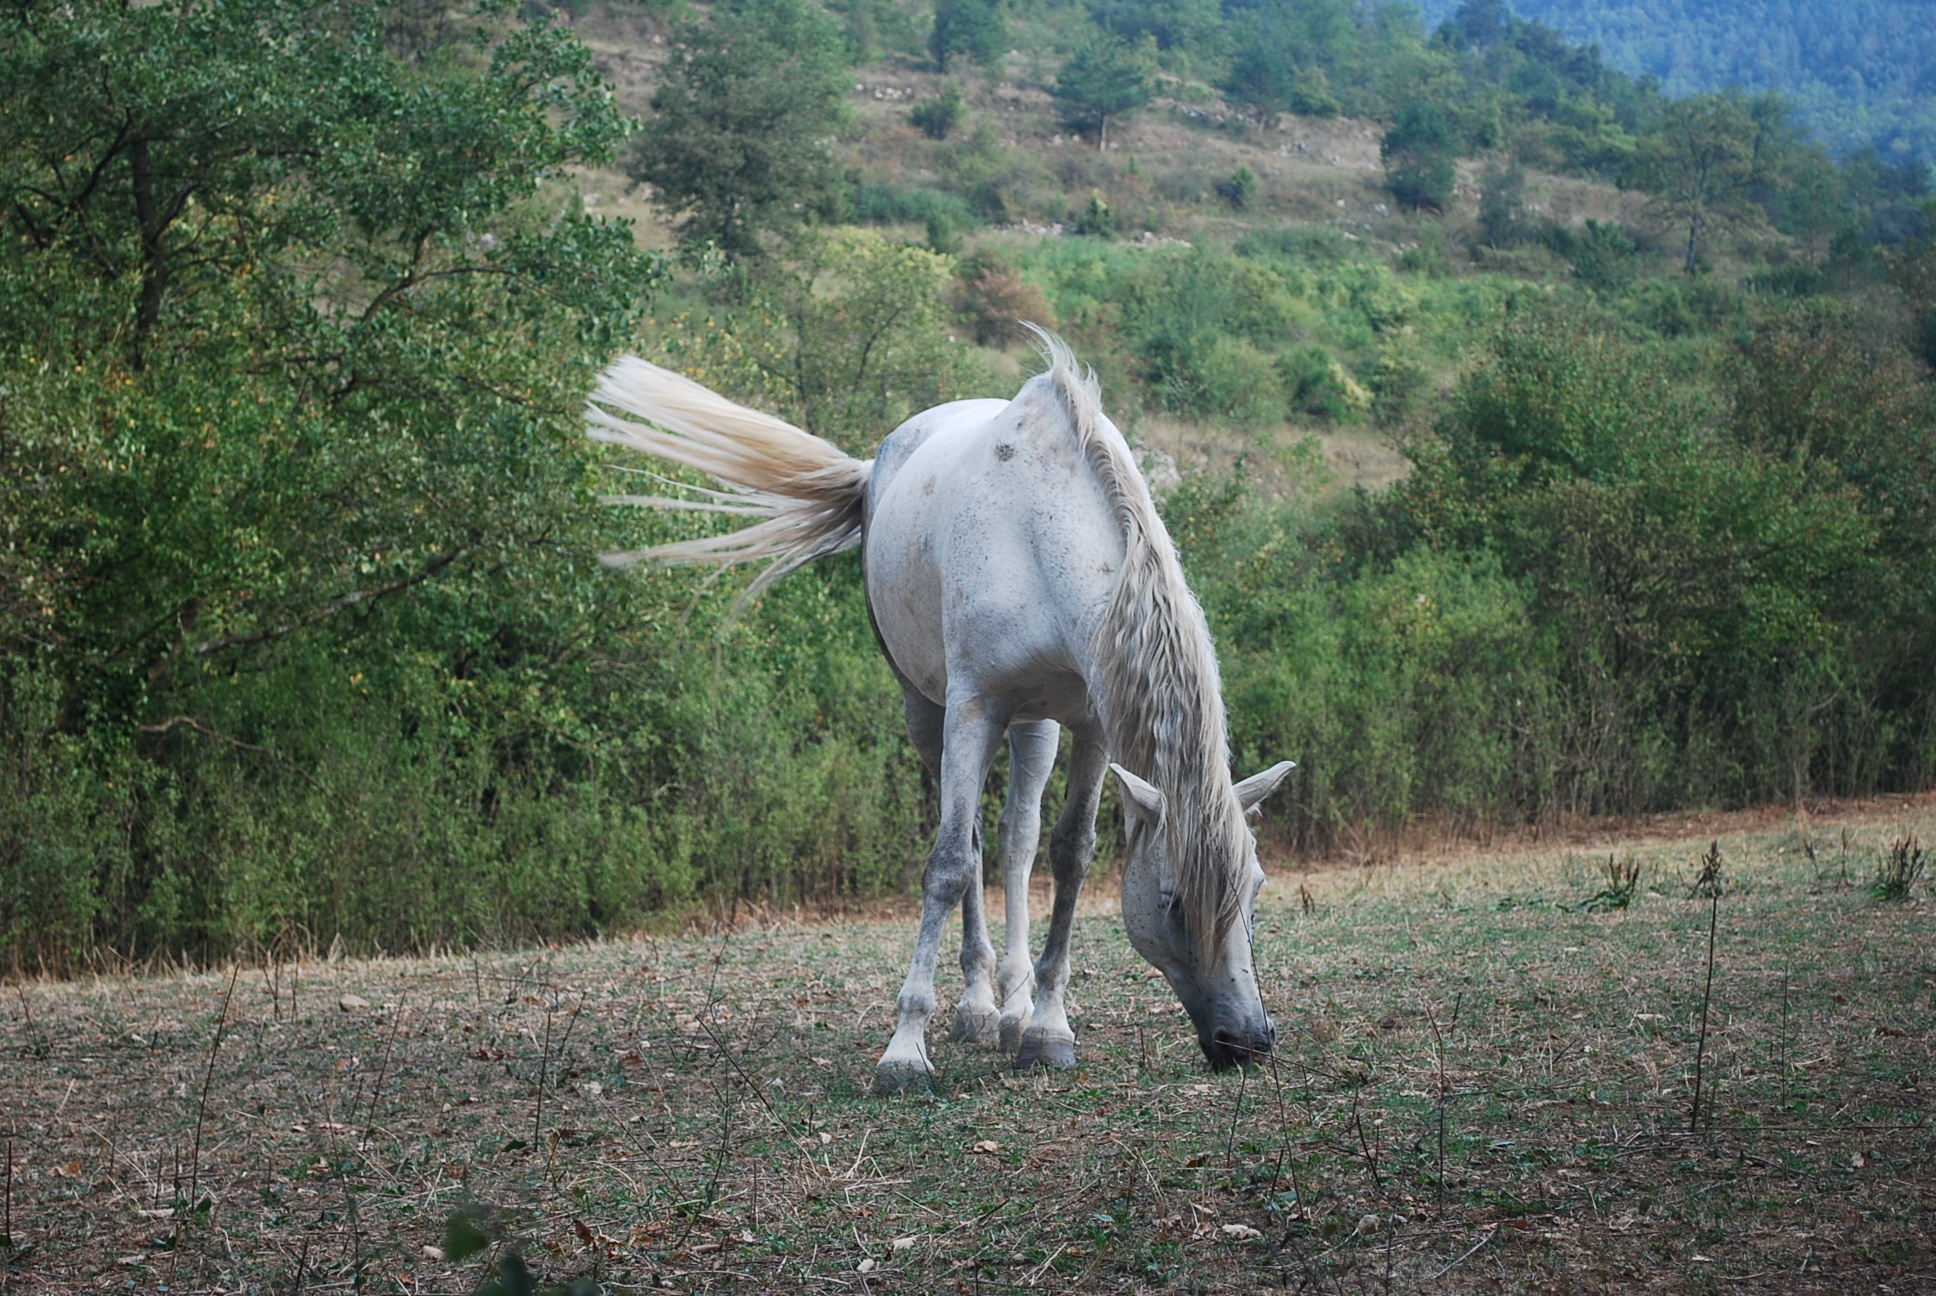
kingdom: Animalia
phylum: Chordata
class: Mammalia
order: Perissodactyla
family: Equidae
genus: Equus
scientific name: Equus caballus
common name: Horse
